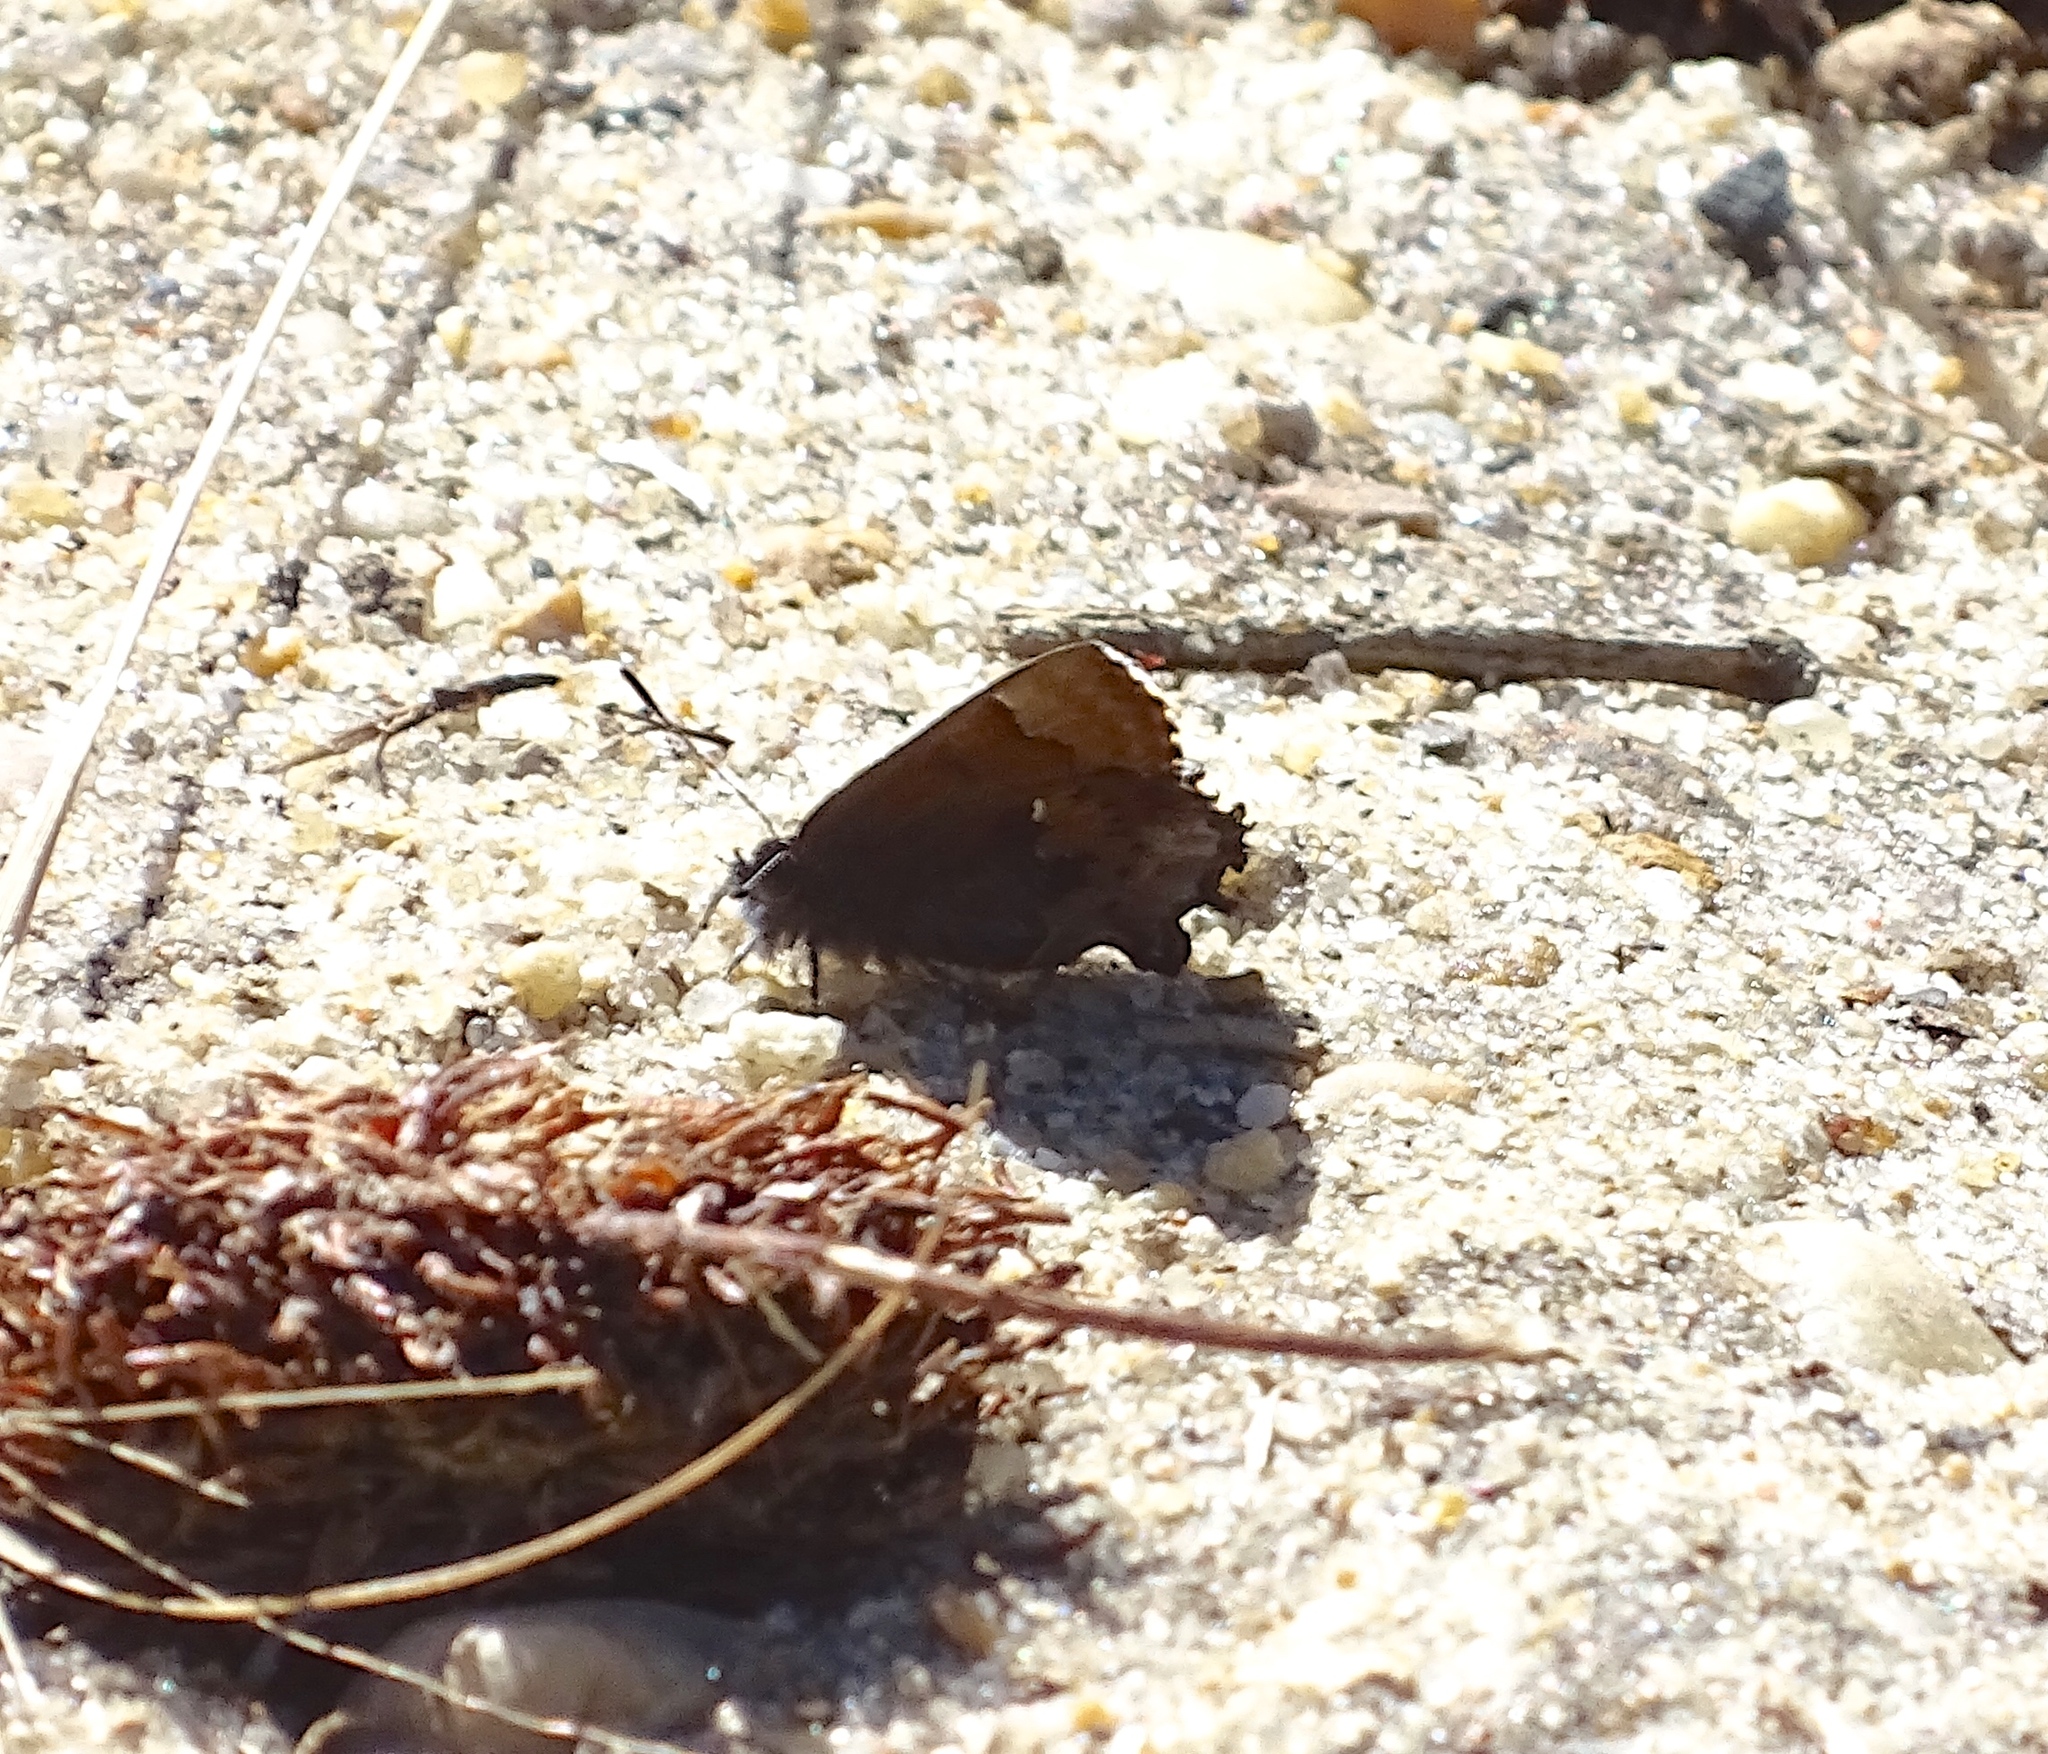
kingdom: Animalia
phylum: Arthropoda
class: Insecta
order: Lepidoptera
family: Lycaenidae
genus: Incisalia
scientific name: Incisalia henrici
